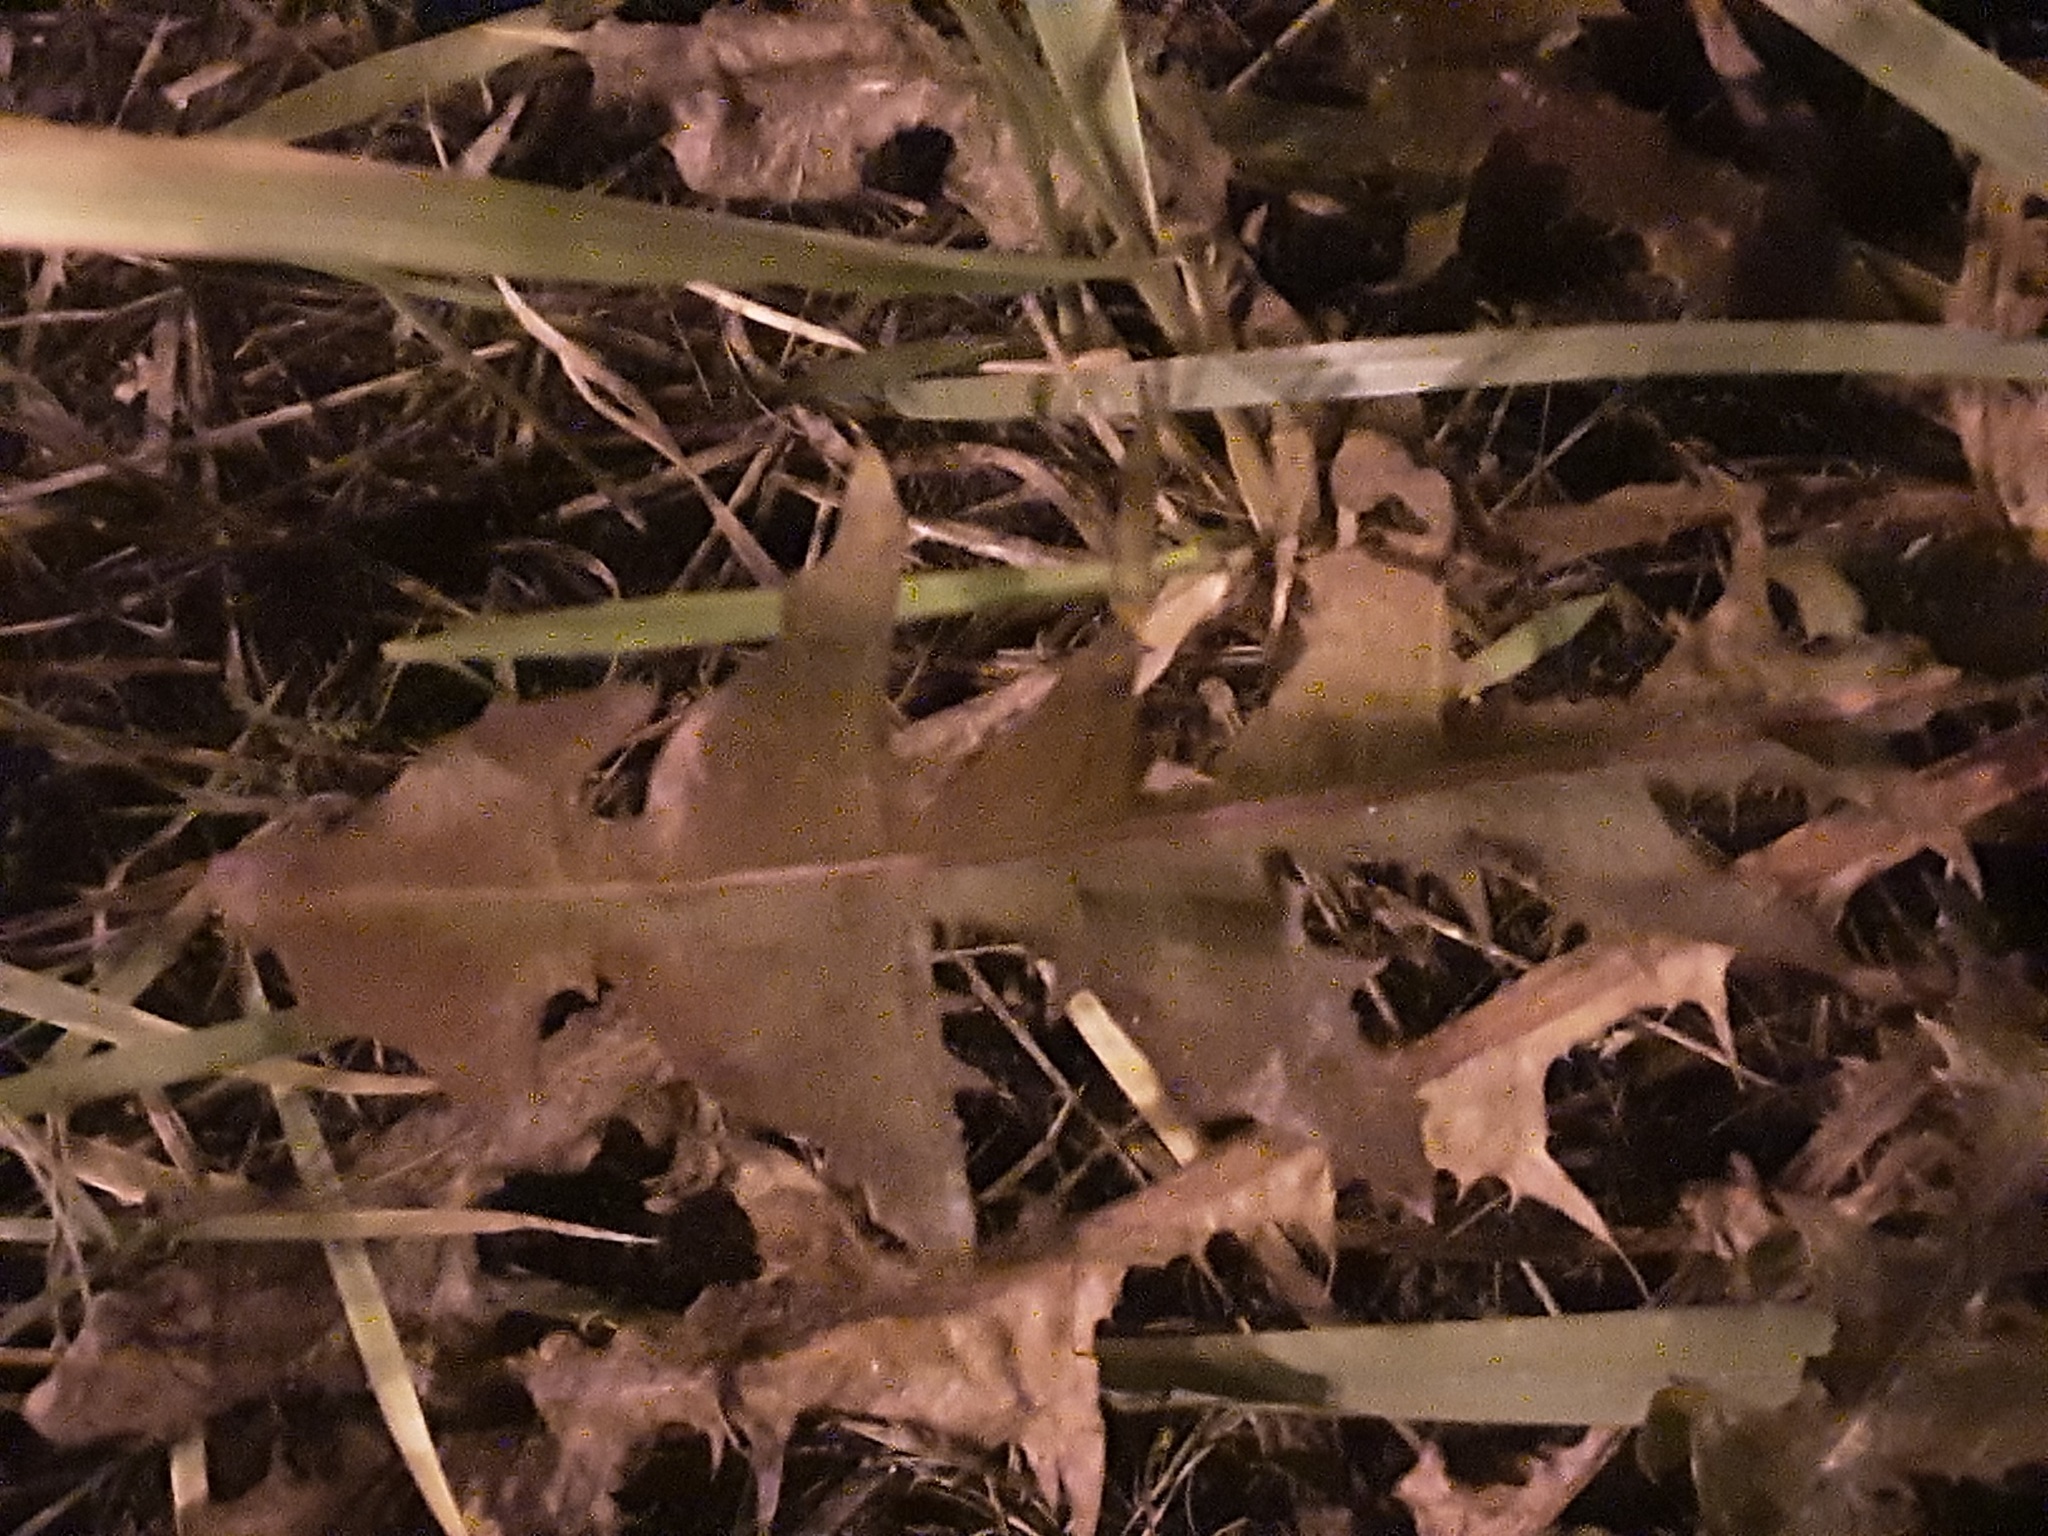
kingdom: Plantae
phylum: Tracheophyta
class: Magnoliopsida
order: Asterales
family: Asteraceae
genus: Taraxacum
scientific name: Taraxacum officinale
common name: Common dandelion
